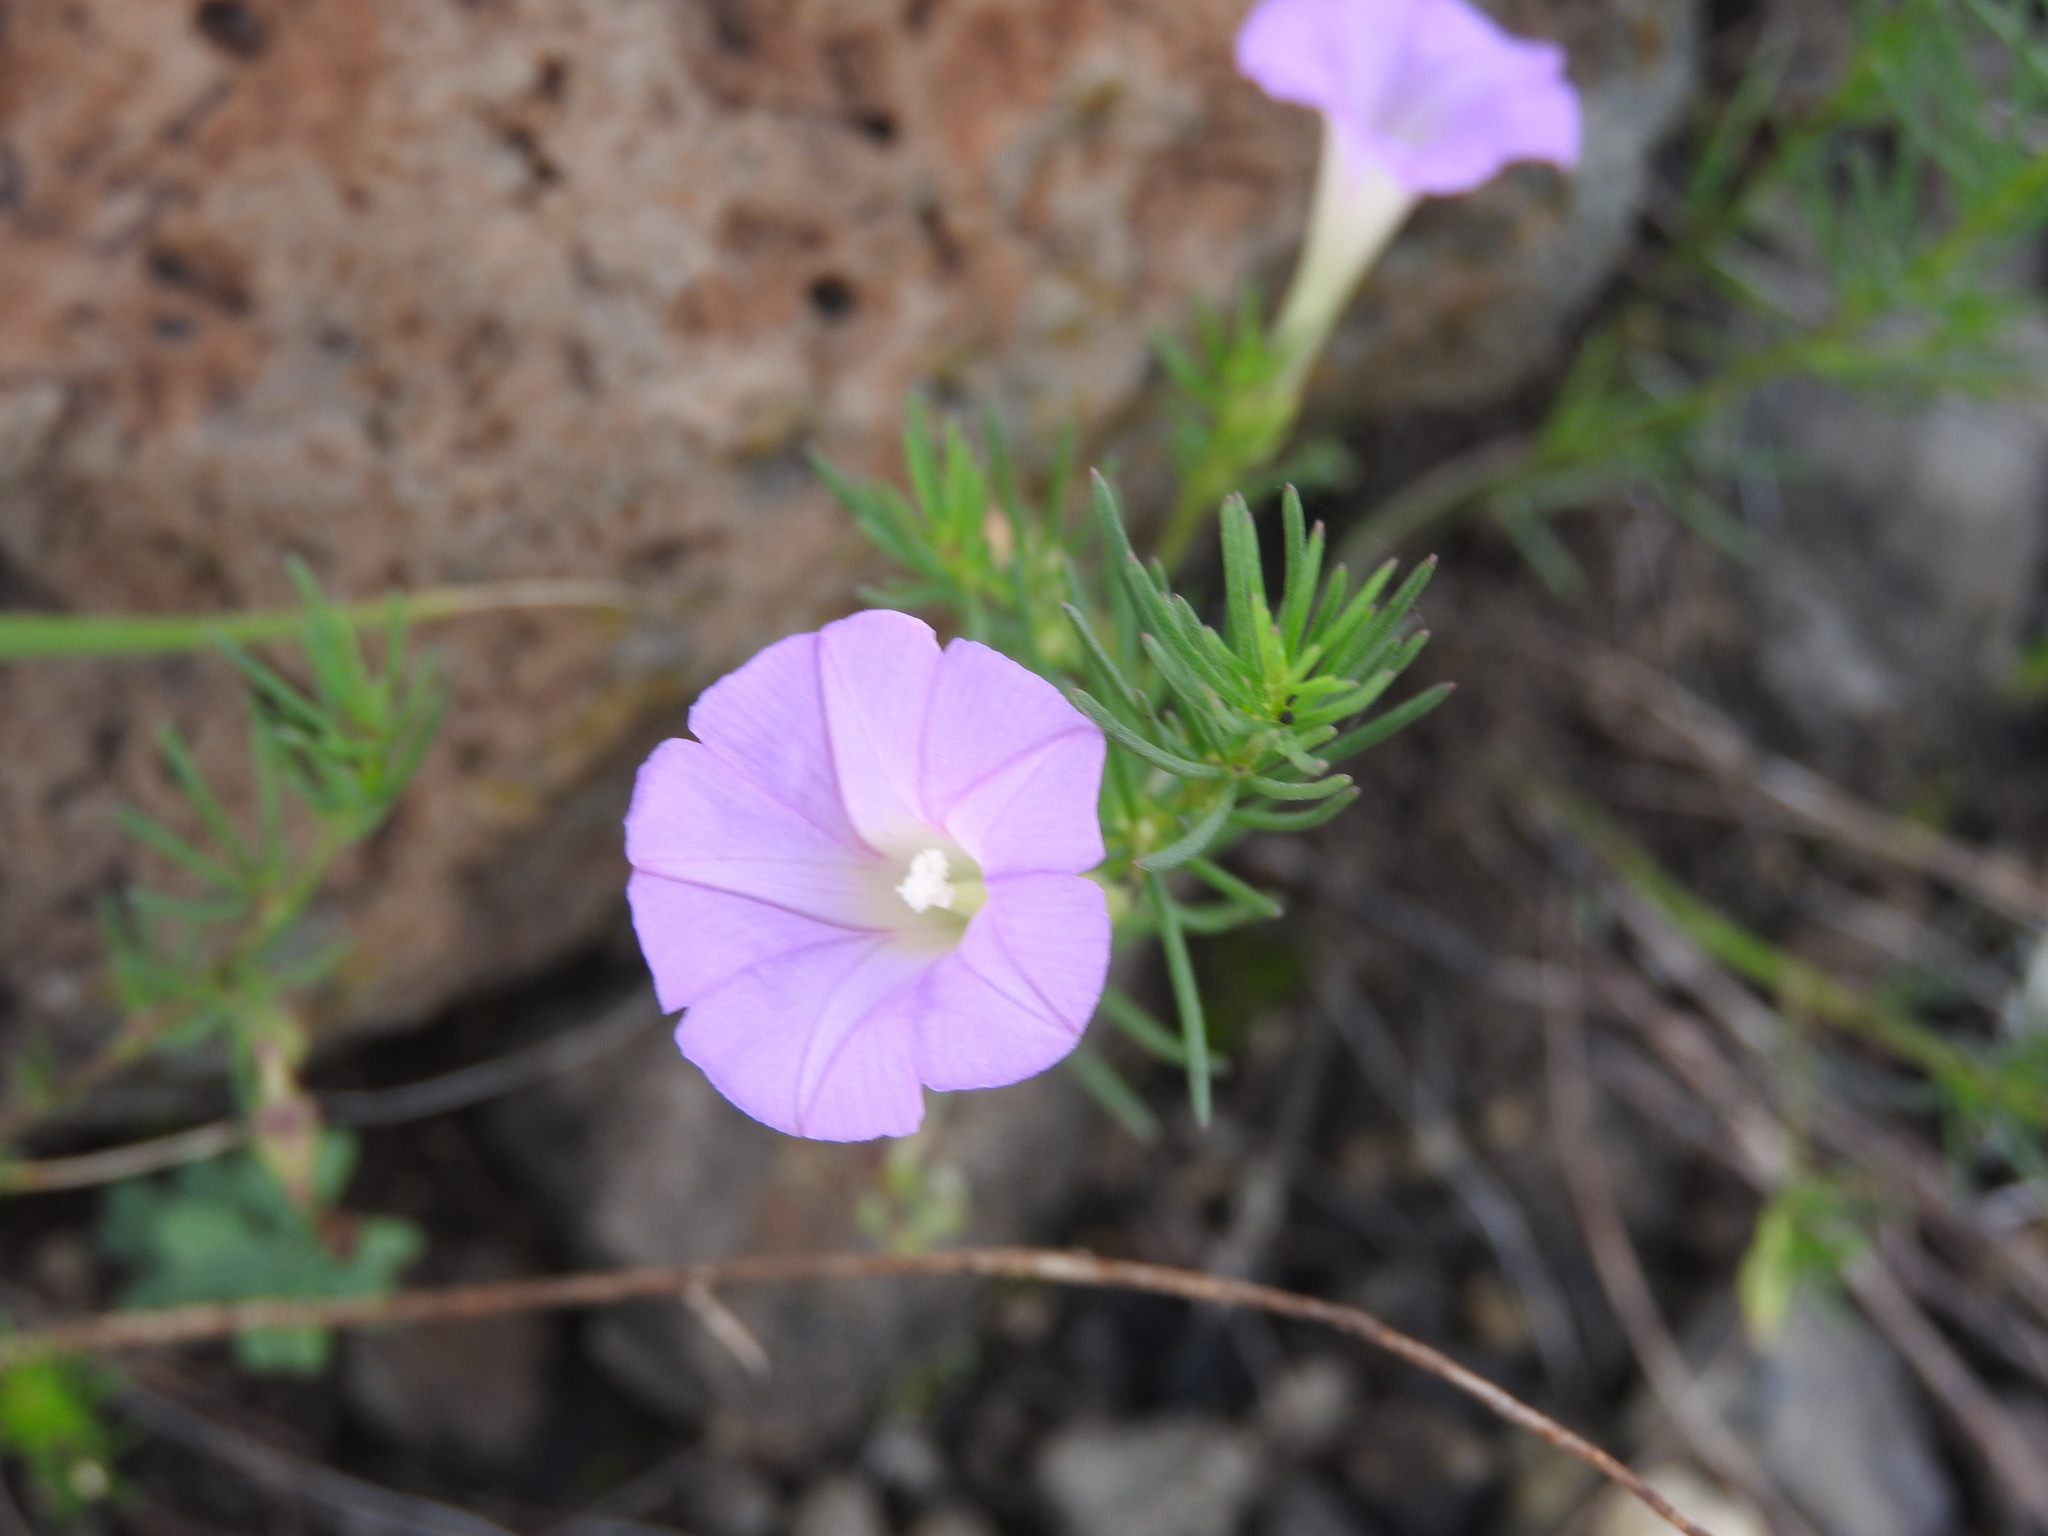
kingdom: Plantae
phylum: Tracheophyta
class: Magnoliopsida
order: Solanales
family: Convolvulaceae
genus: Ipomoea
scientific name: Ipomoea capillacea
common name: Purple morning-glory
